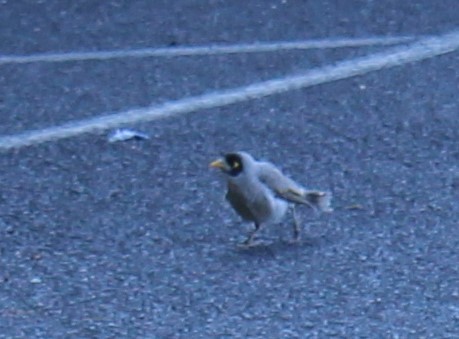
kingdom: Animalia
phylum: Chordata
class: Aves
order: Passeriformes
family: Meliphagidae
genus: Manorina
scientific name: Manorina melanocephala
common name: Noisy miner
